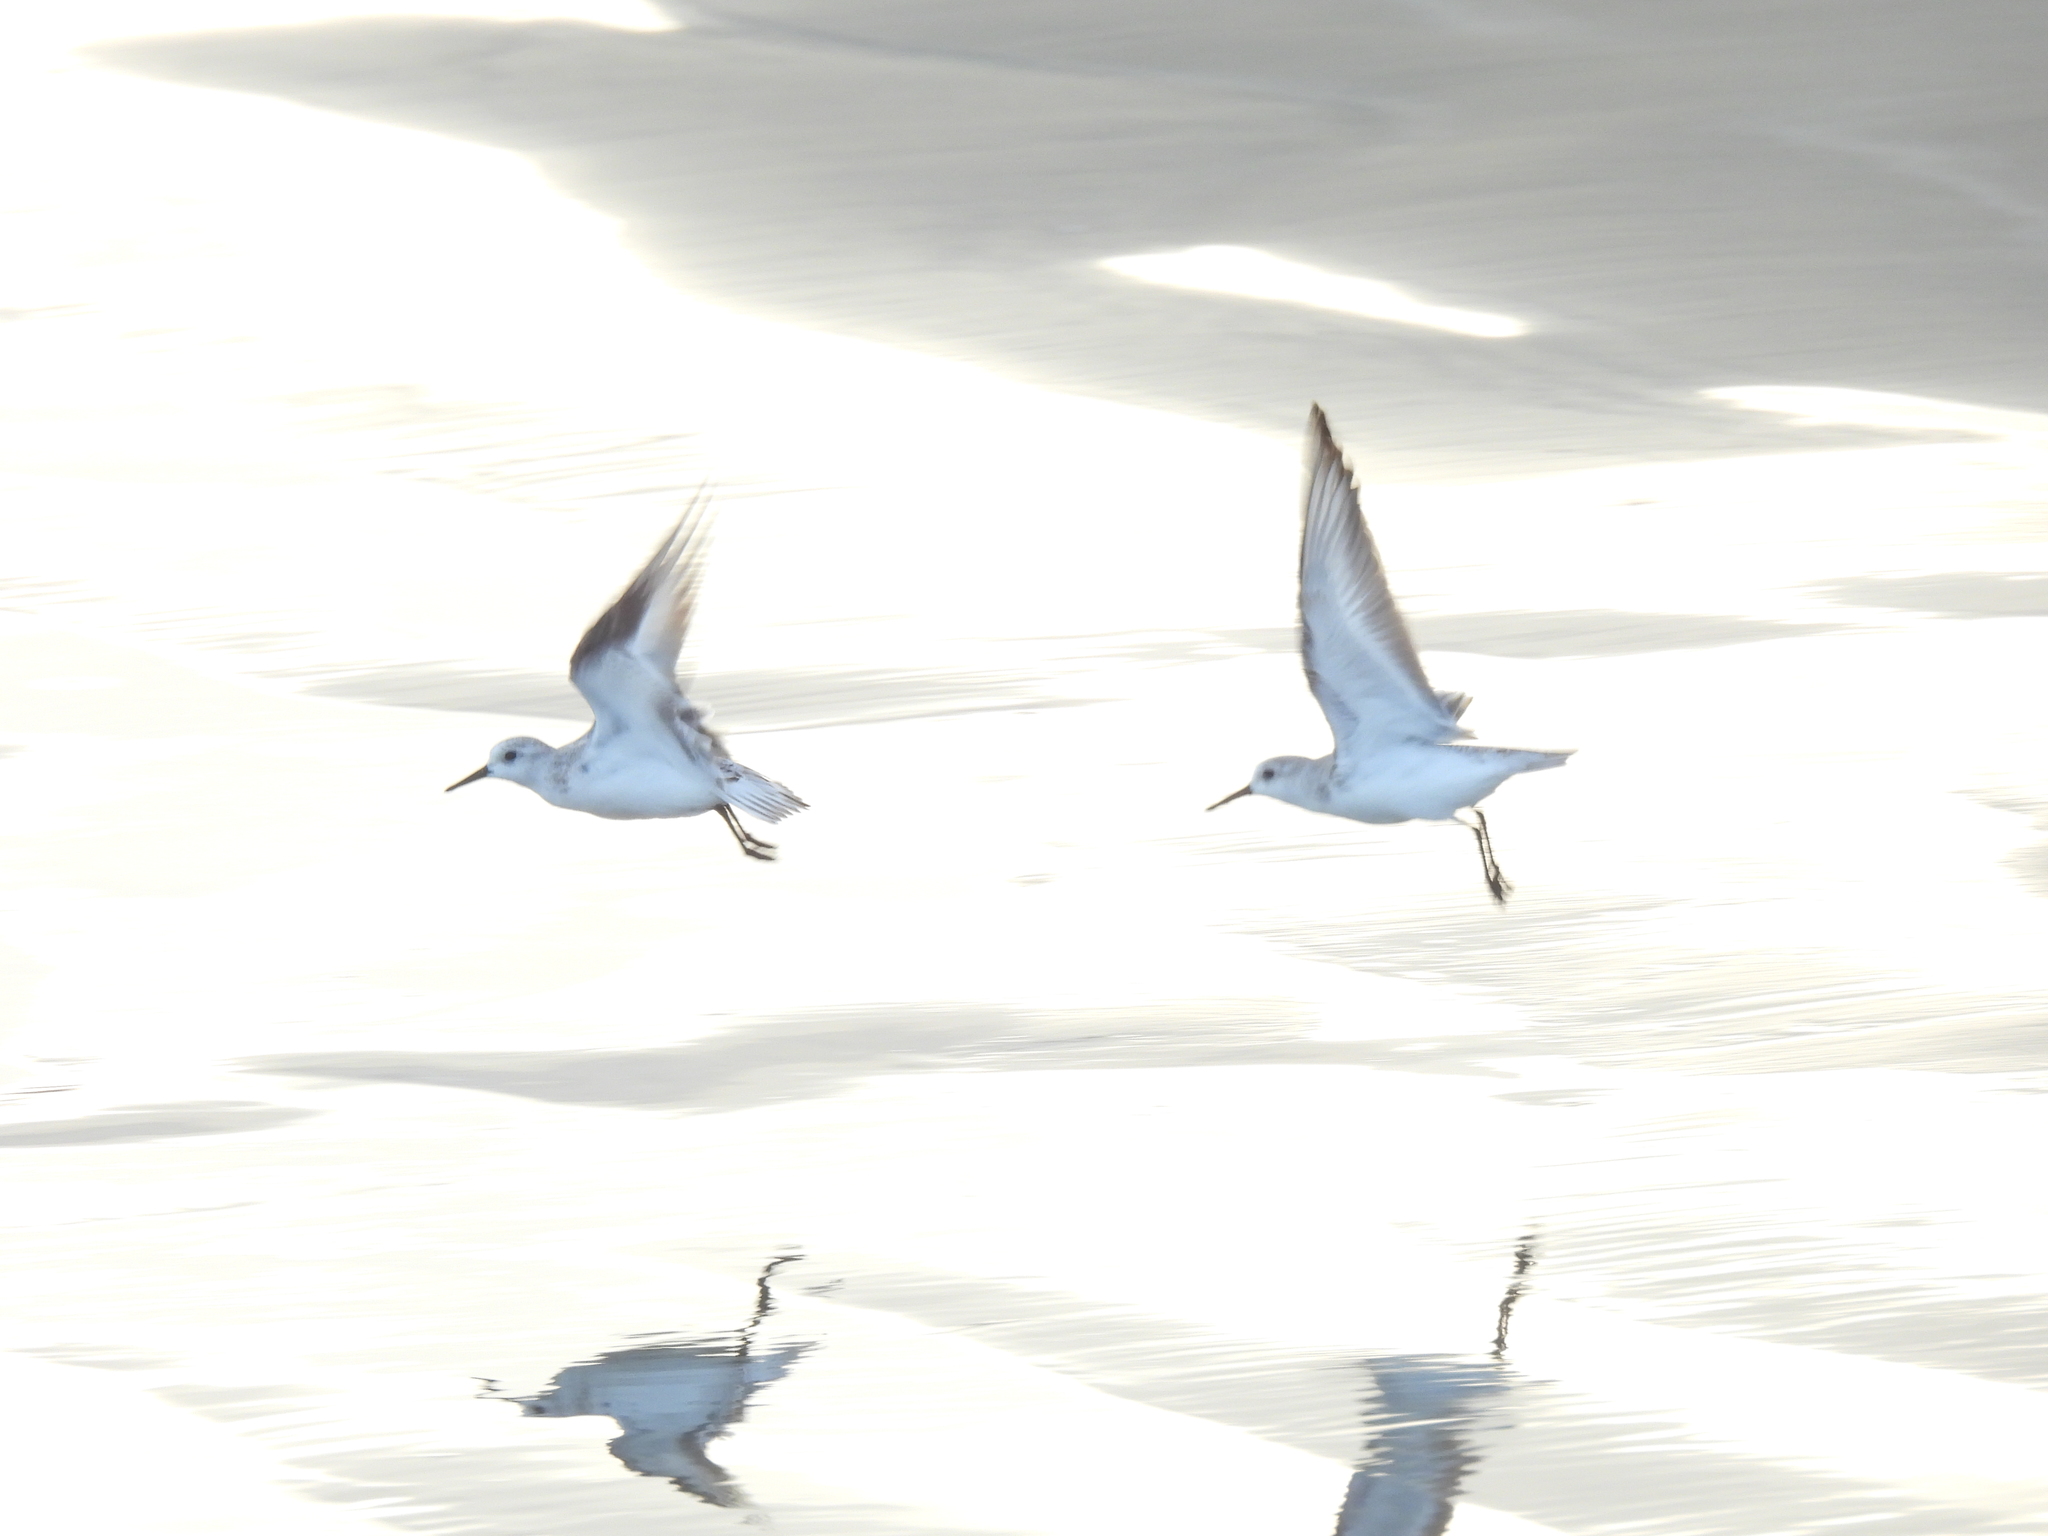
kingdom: Animalia
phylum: Chordata
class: Aves
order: Charadriiformes
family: Scolopacidae
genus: Calidris
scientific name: Calidris alba
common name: Sanderling
